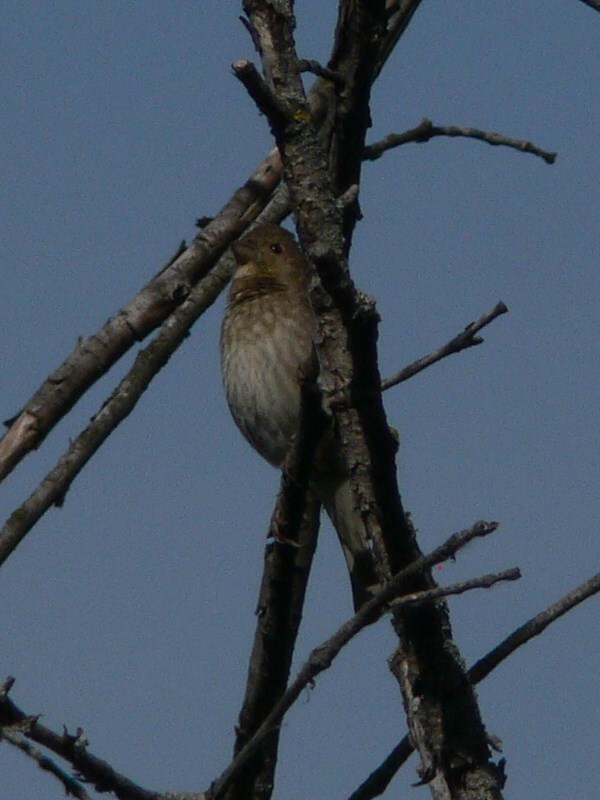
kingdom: Animalia
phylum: Chordata
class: Aves
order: Passeriformes
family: Fringillidae
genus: Carpodacus
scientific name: Carpodacus erythrinus
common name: Common rosefinch
